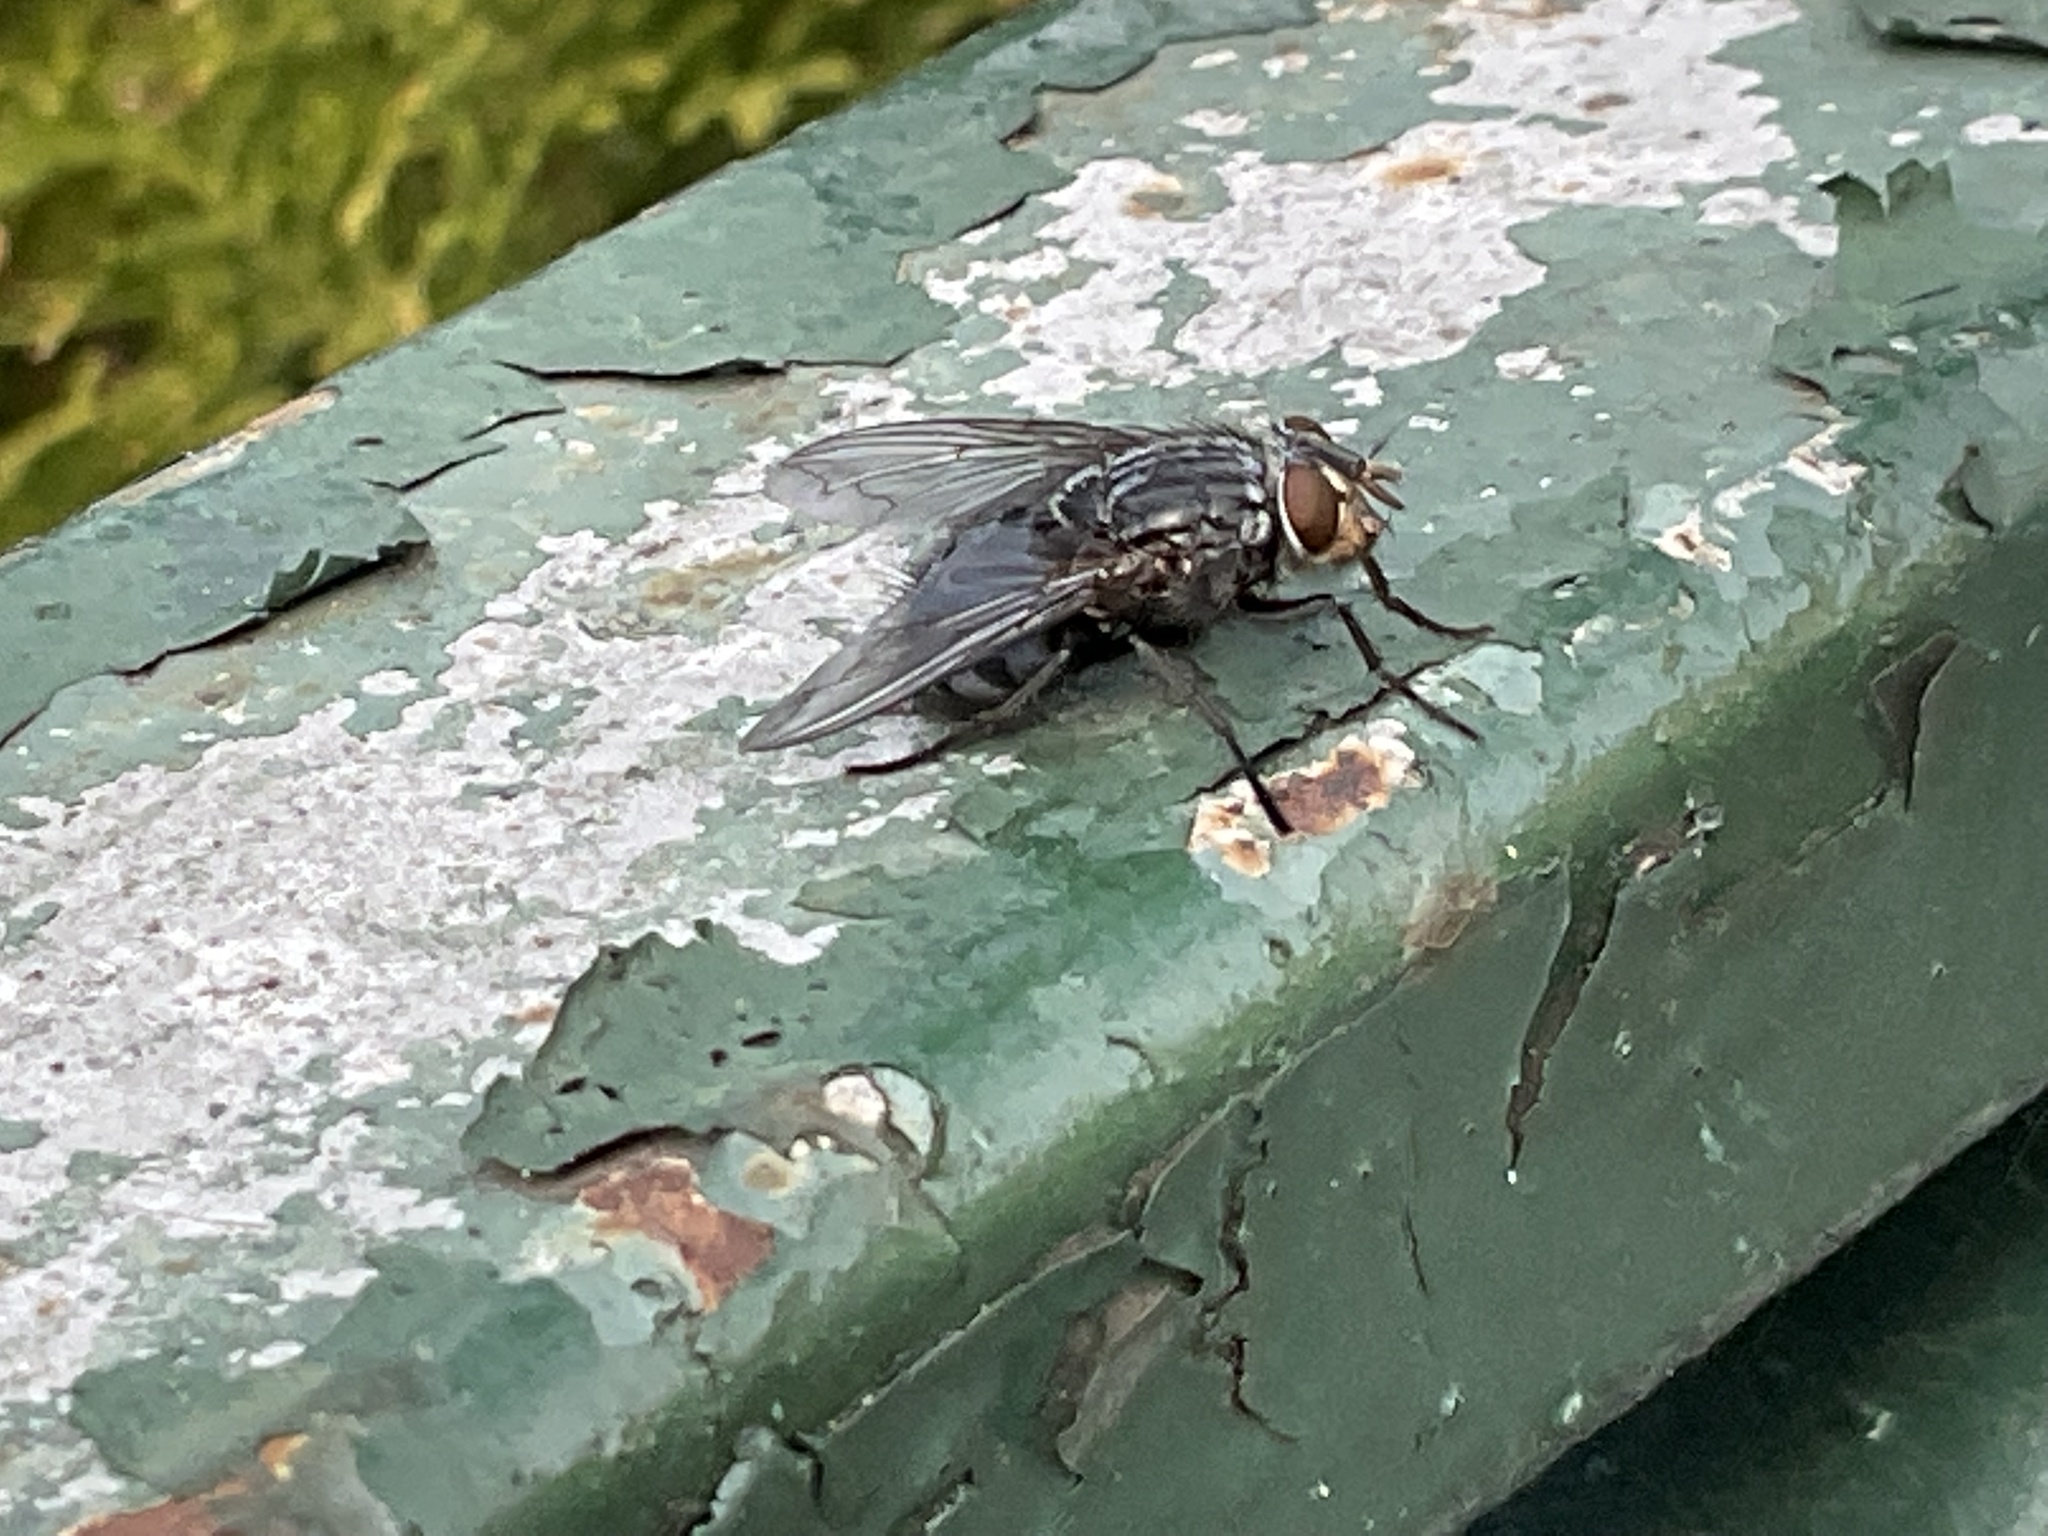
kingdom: Animalia
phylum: Arthropoda
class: Insecta
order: Diptera
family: Calliphoridae
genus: Calliphora
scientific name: Calliphora vicina
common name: Common blow flie
